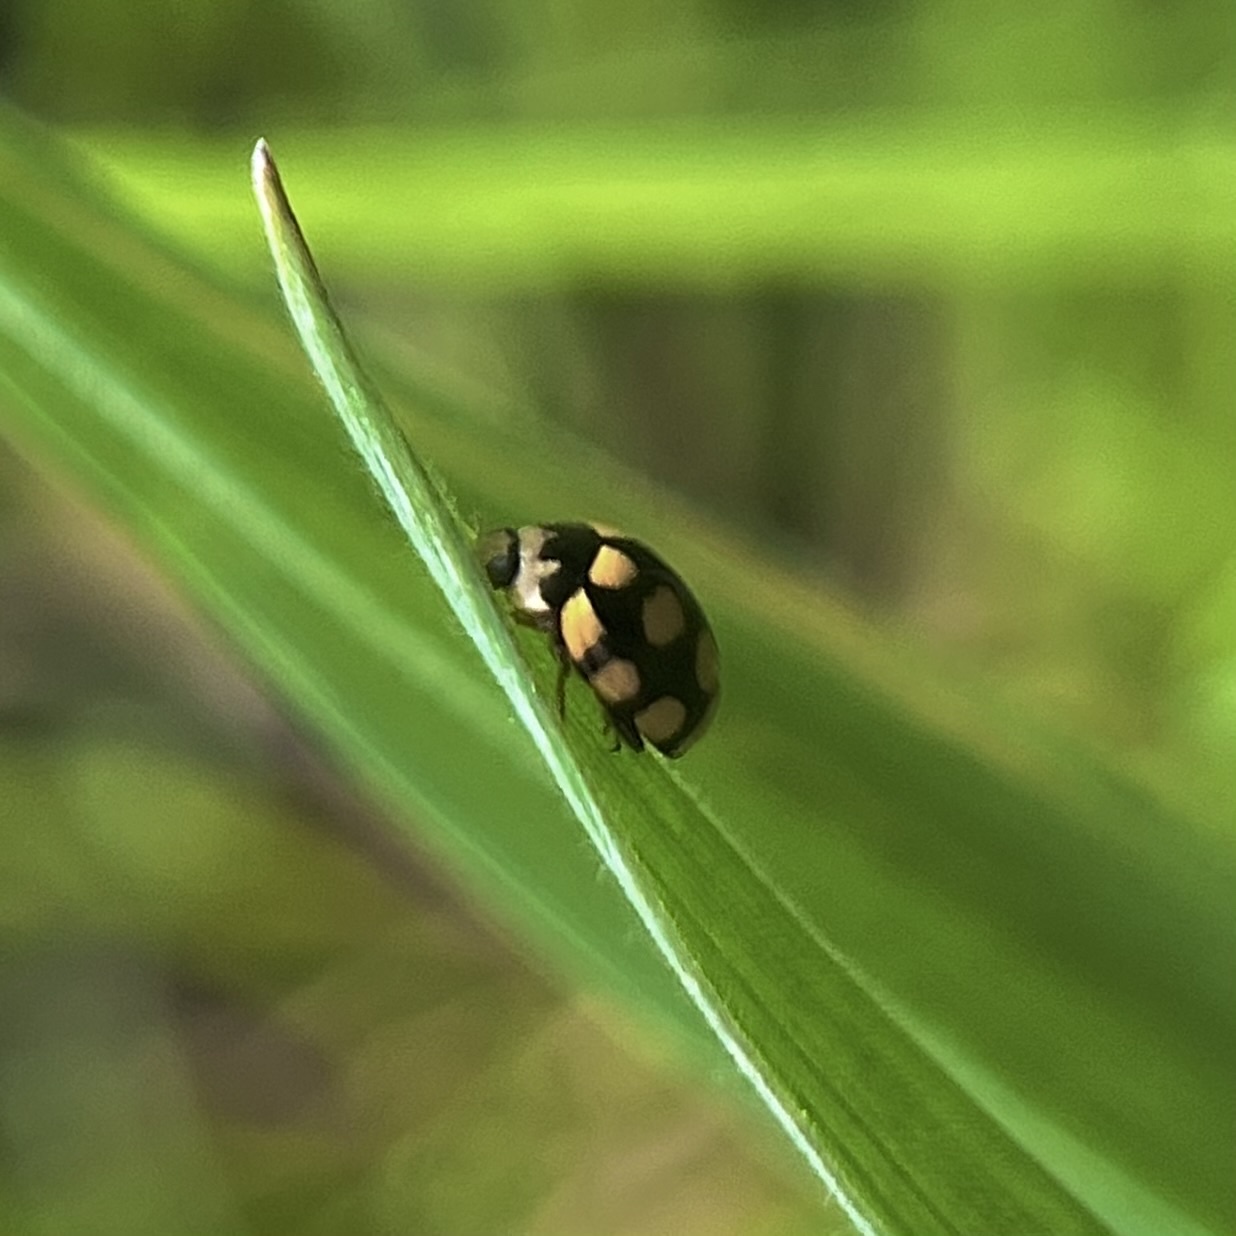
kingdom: Animalia
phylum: Arthropoda
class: Insecta
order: Coleoptera
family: Coccinellidae
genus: Coccinula
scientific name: Coccinula quatuordecimpustulata
